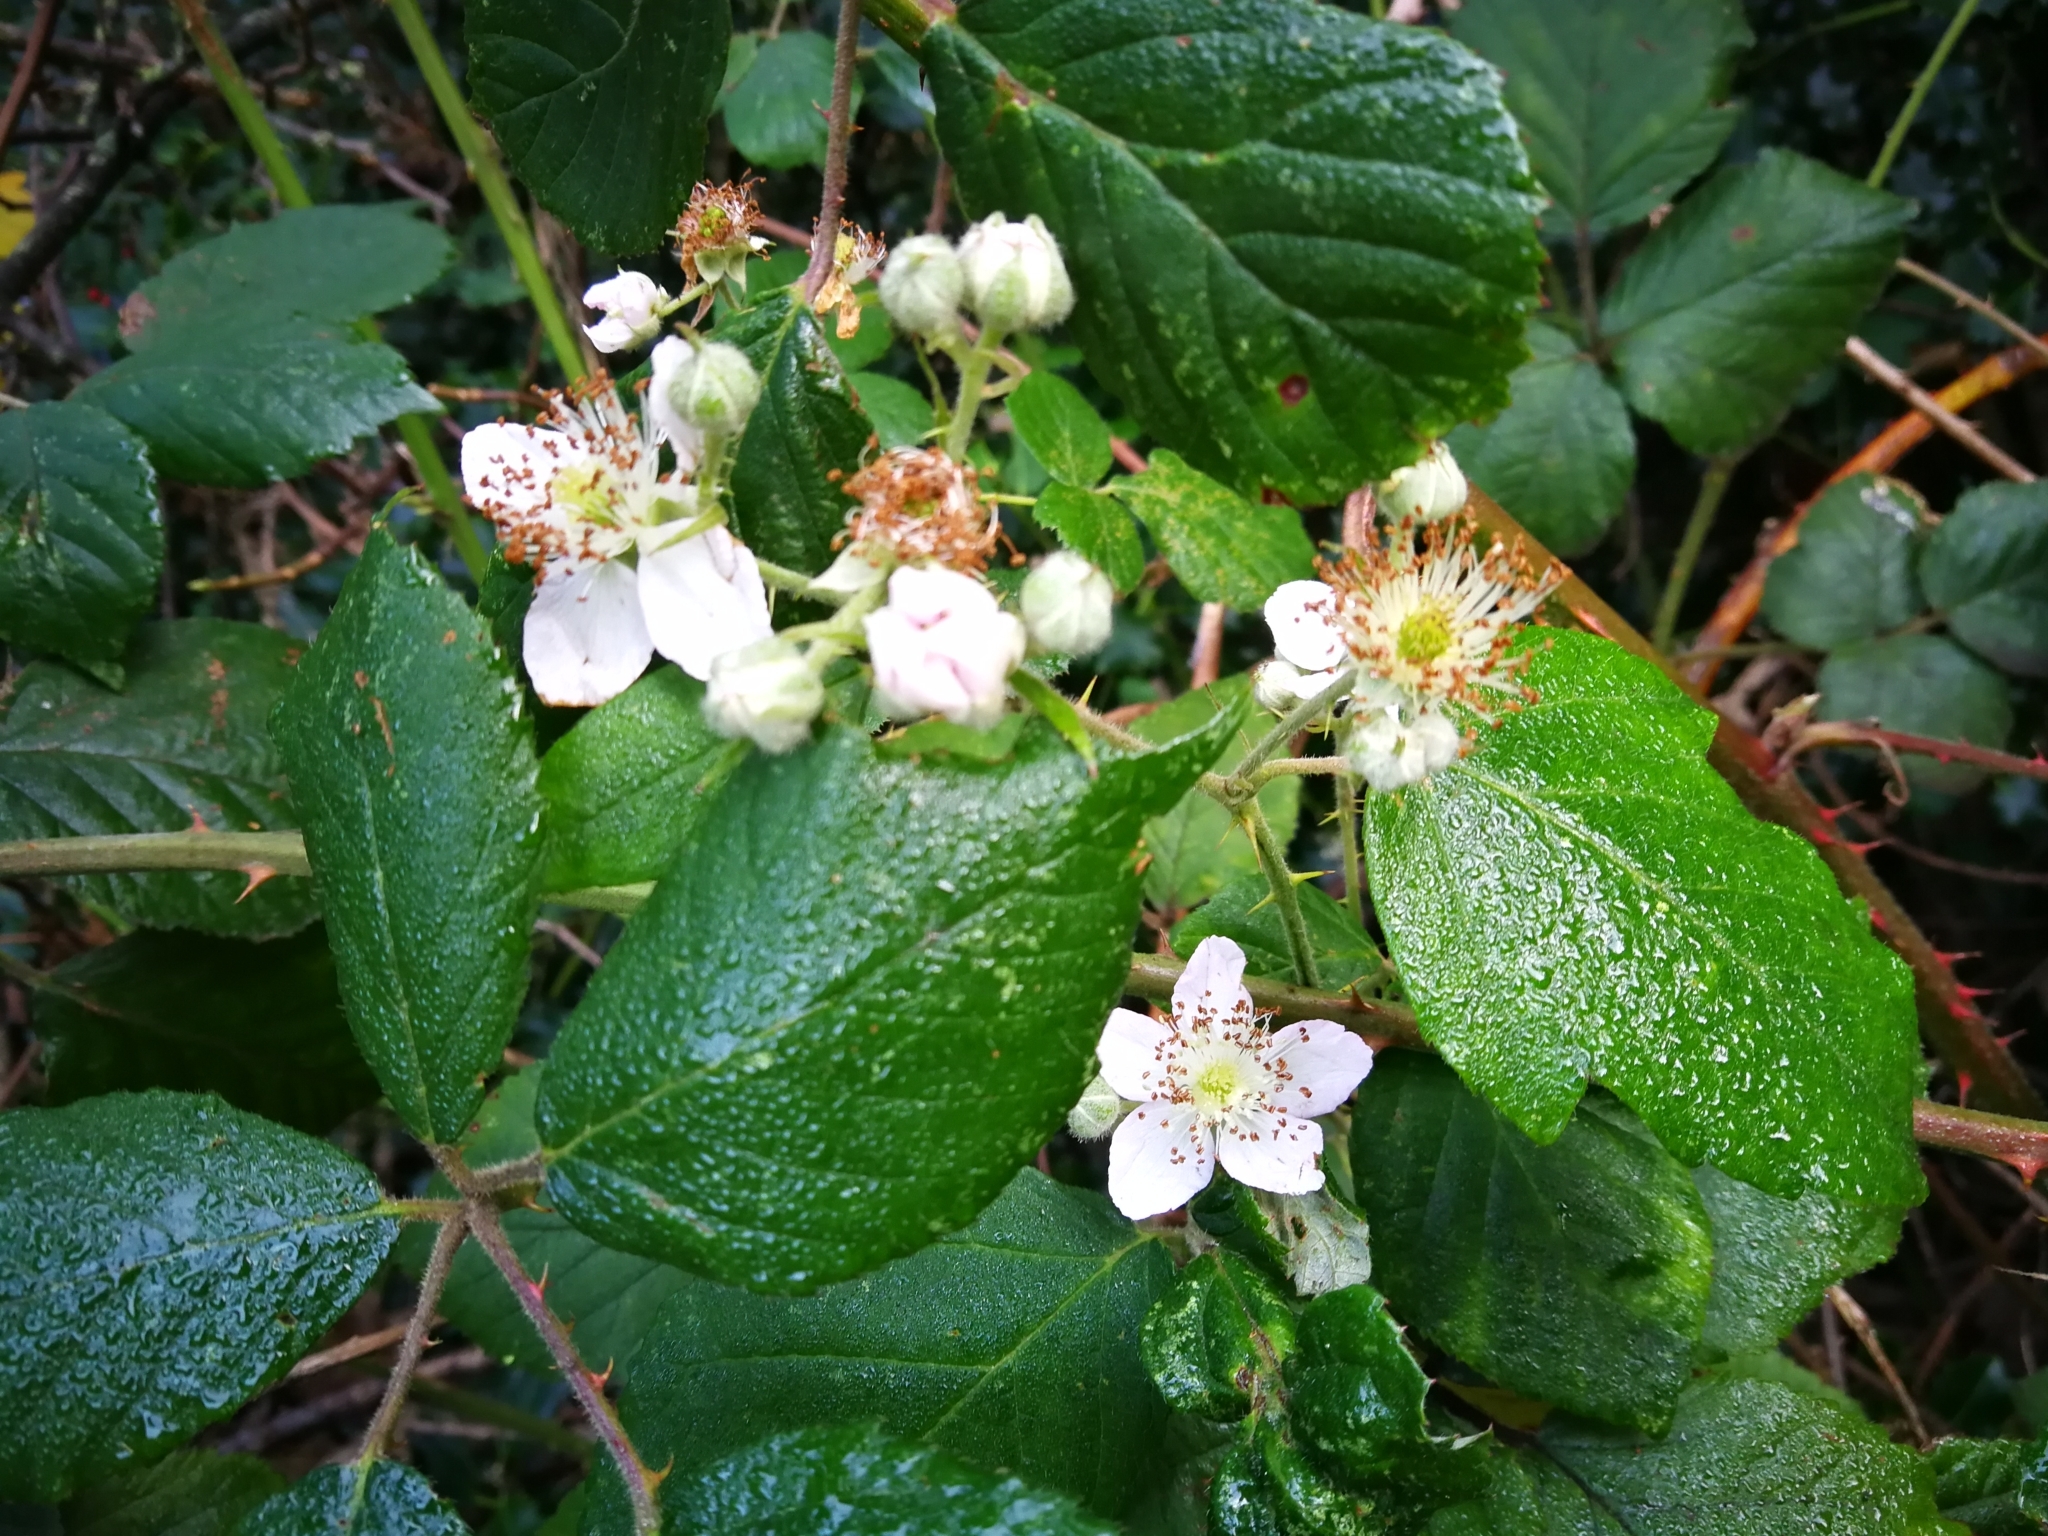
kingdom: Plantae
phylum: Tracheophyta
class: Magnoliopsida
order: Rosales
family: Rosaceae
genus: Rubus
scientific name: Rubus
